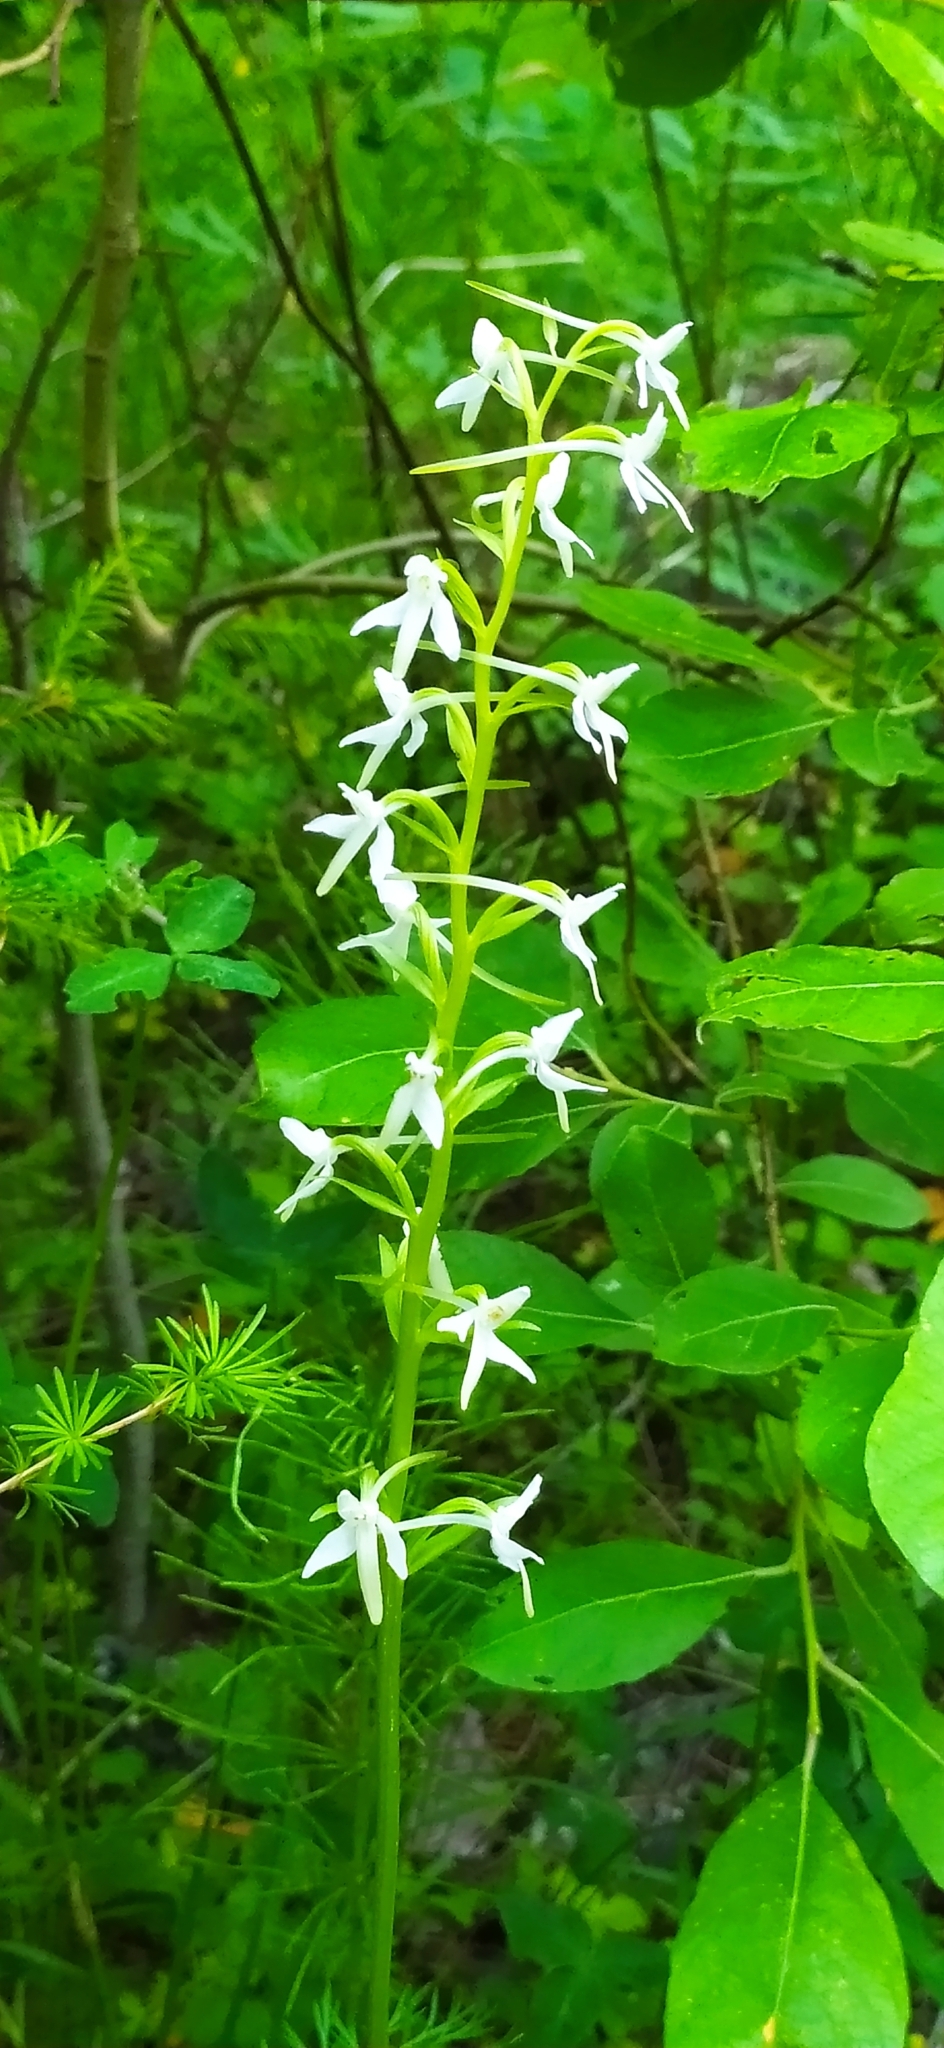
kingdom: Plantae
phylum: Tracheophyta
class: Liliopsida
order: Asparagales
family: Orchidaceae
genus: Platanthera
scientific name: Platanthera bifolia
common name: Lesser butterfly-orchid
